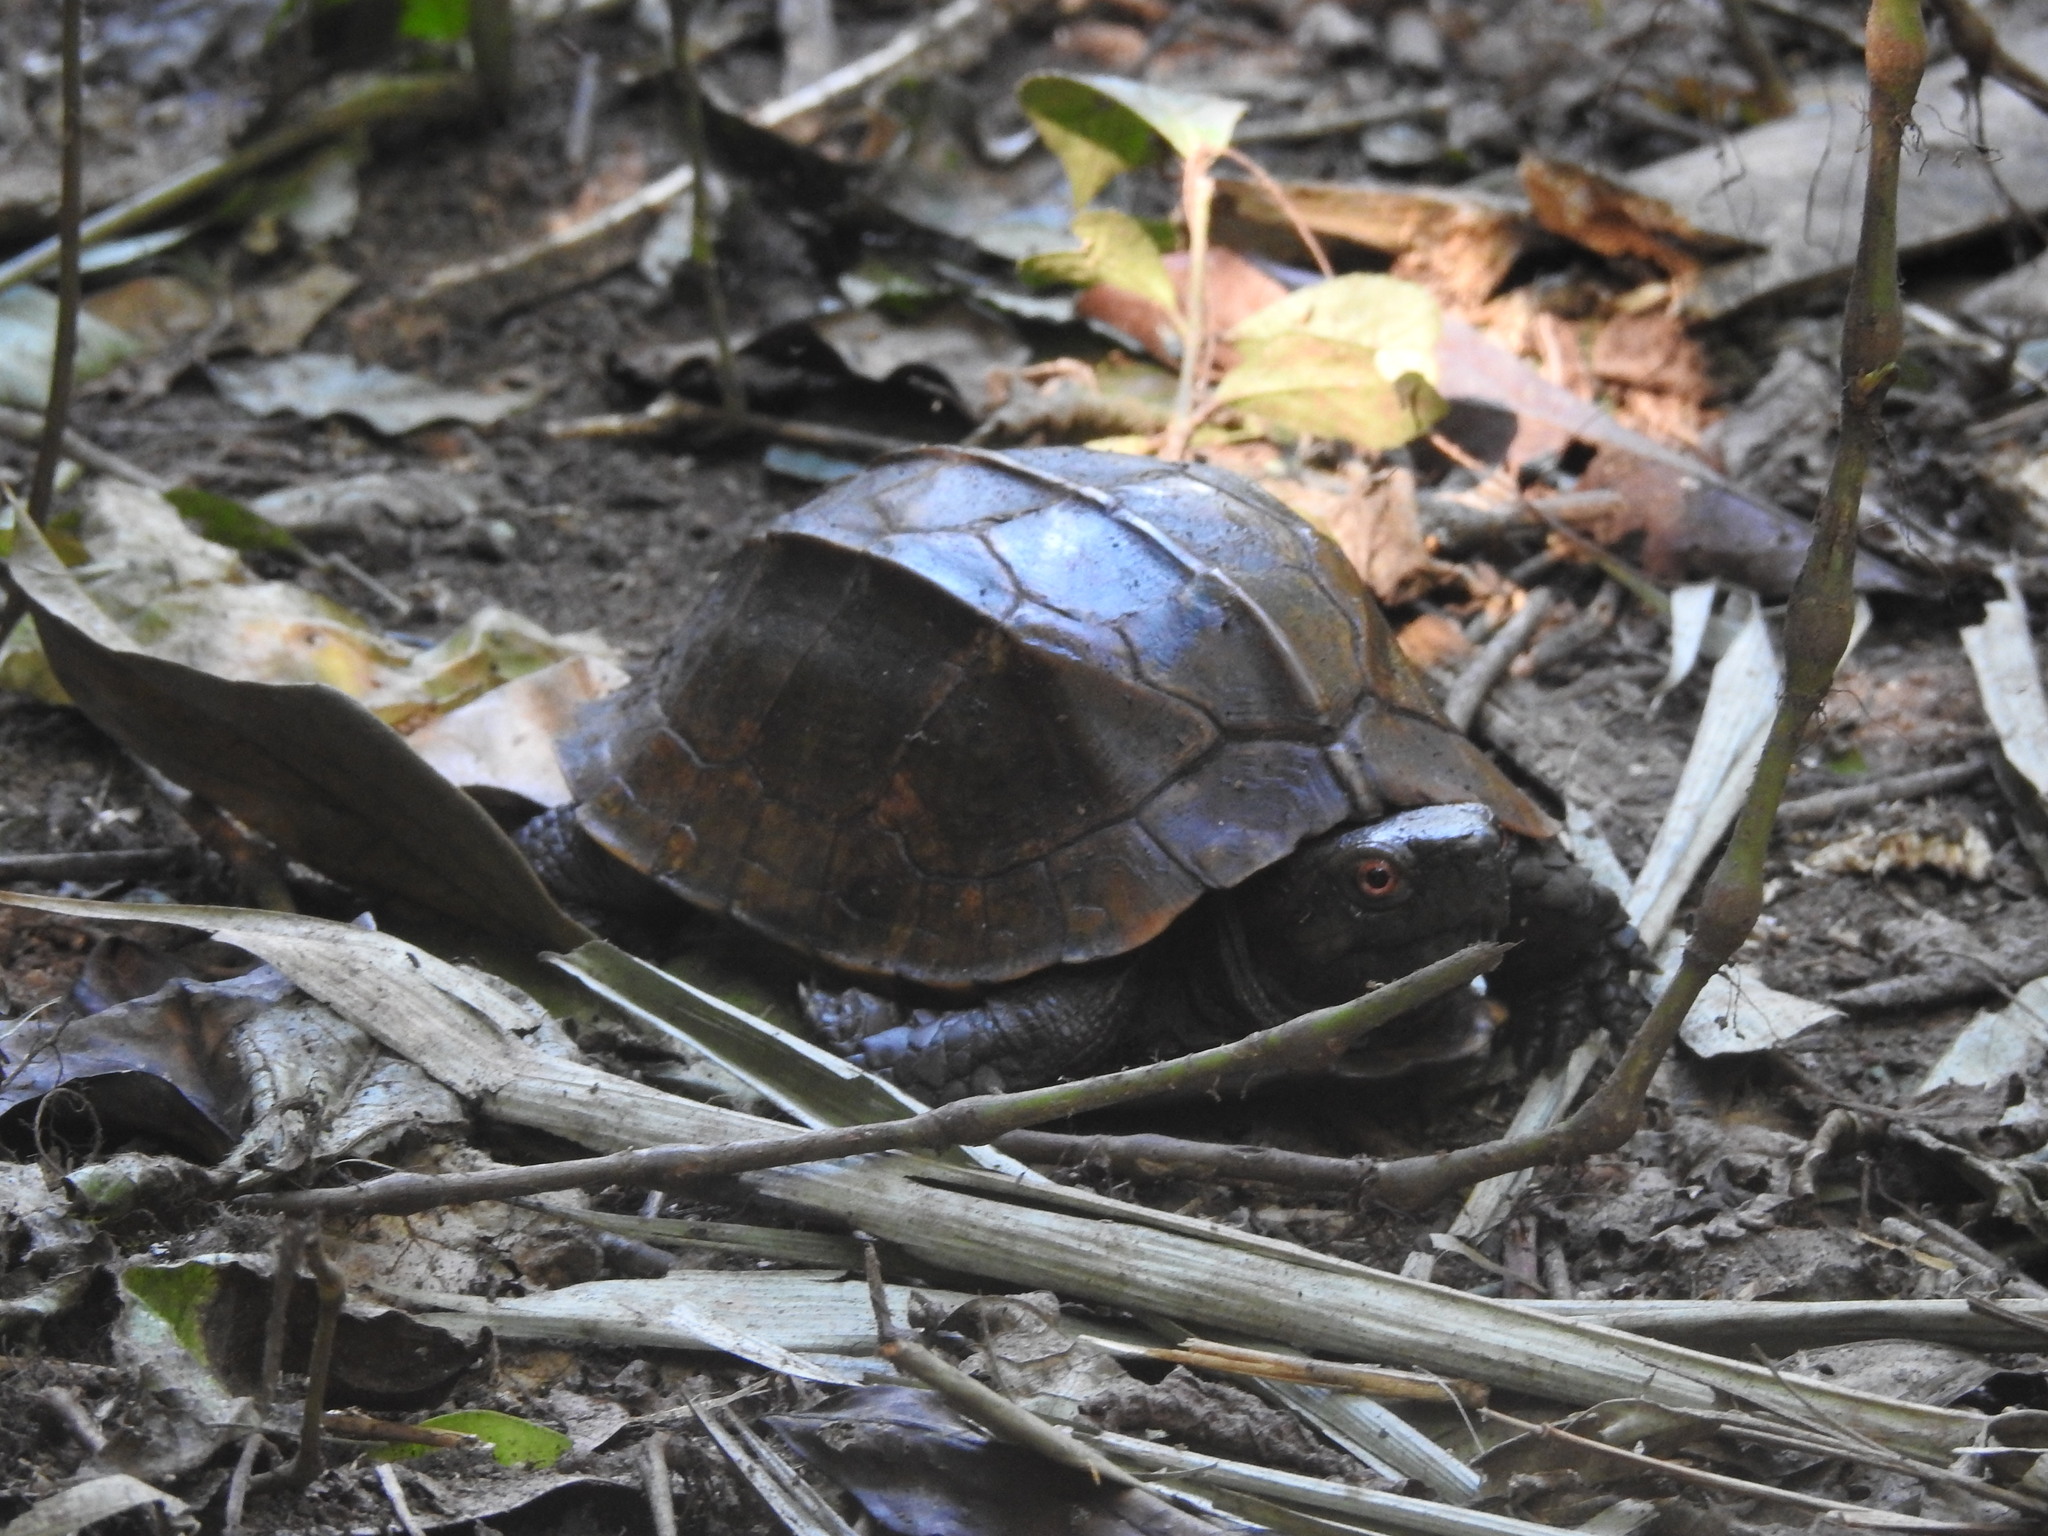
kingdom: Animalia
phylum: Chordata
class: Testudines
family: Geoemydidae
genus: Cuora
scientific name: Cuora mouhotii
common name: Keeled box turtle
